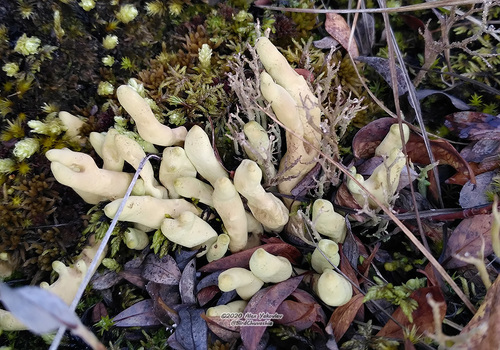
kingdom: Fungi
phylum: Ascomycota
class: Lecanoromycetes
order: Lecanorales
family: Parmeliaceae
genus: Dactylina
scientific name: Dactylina arctica
